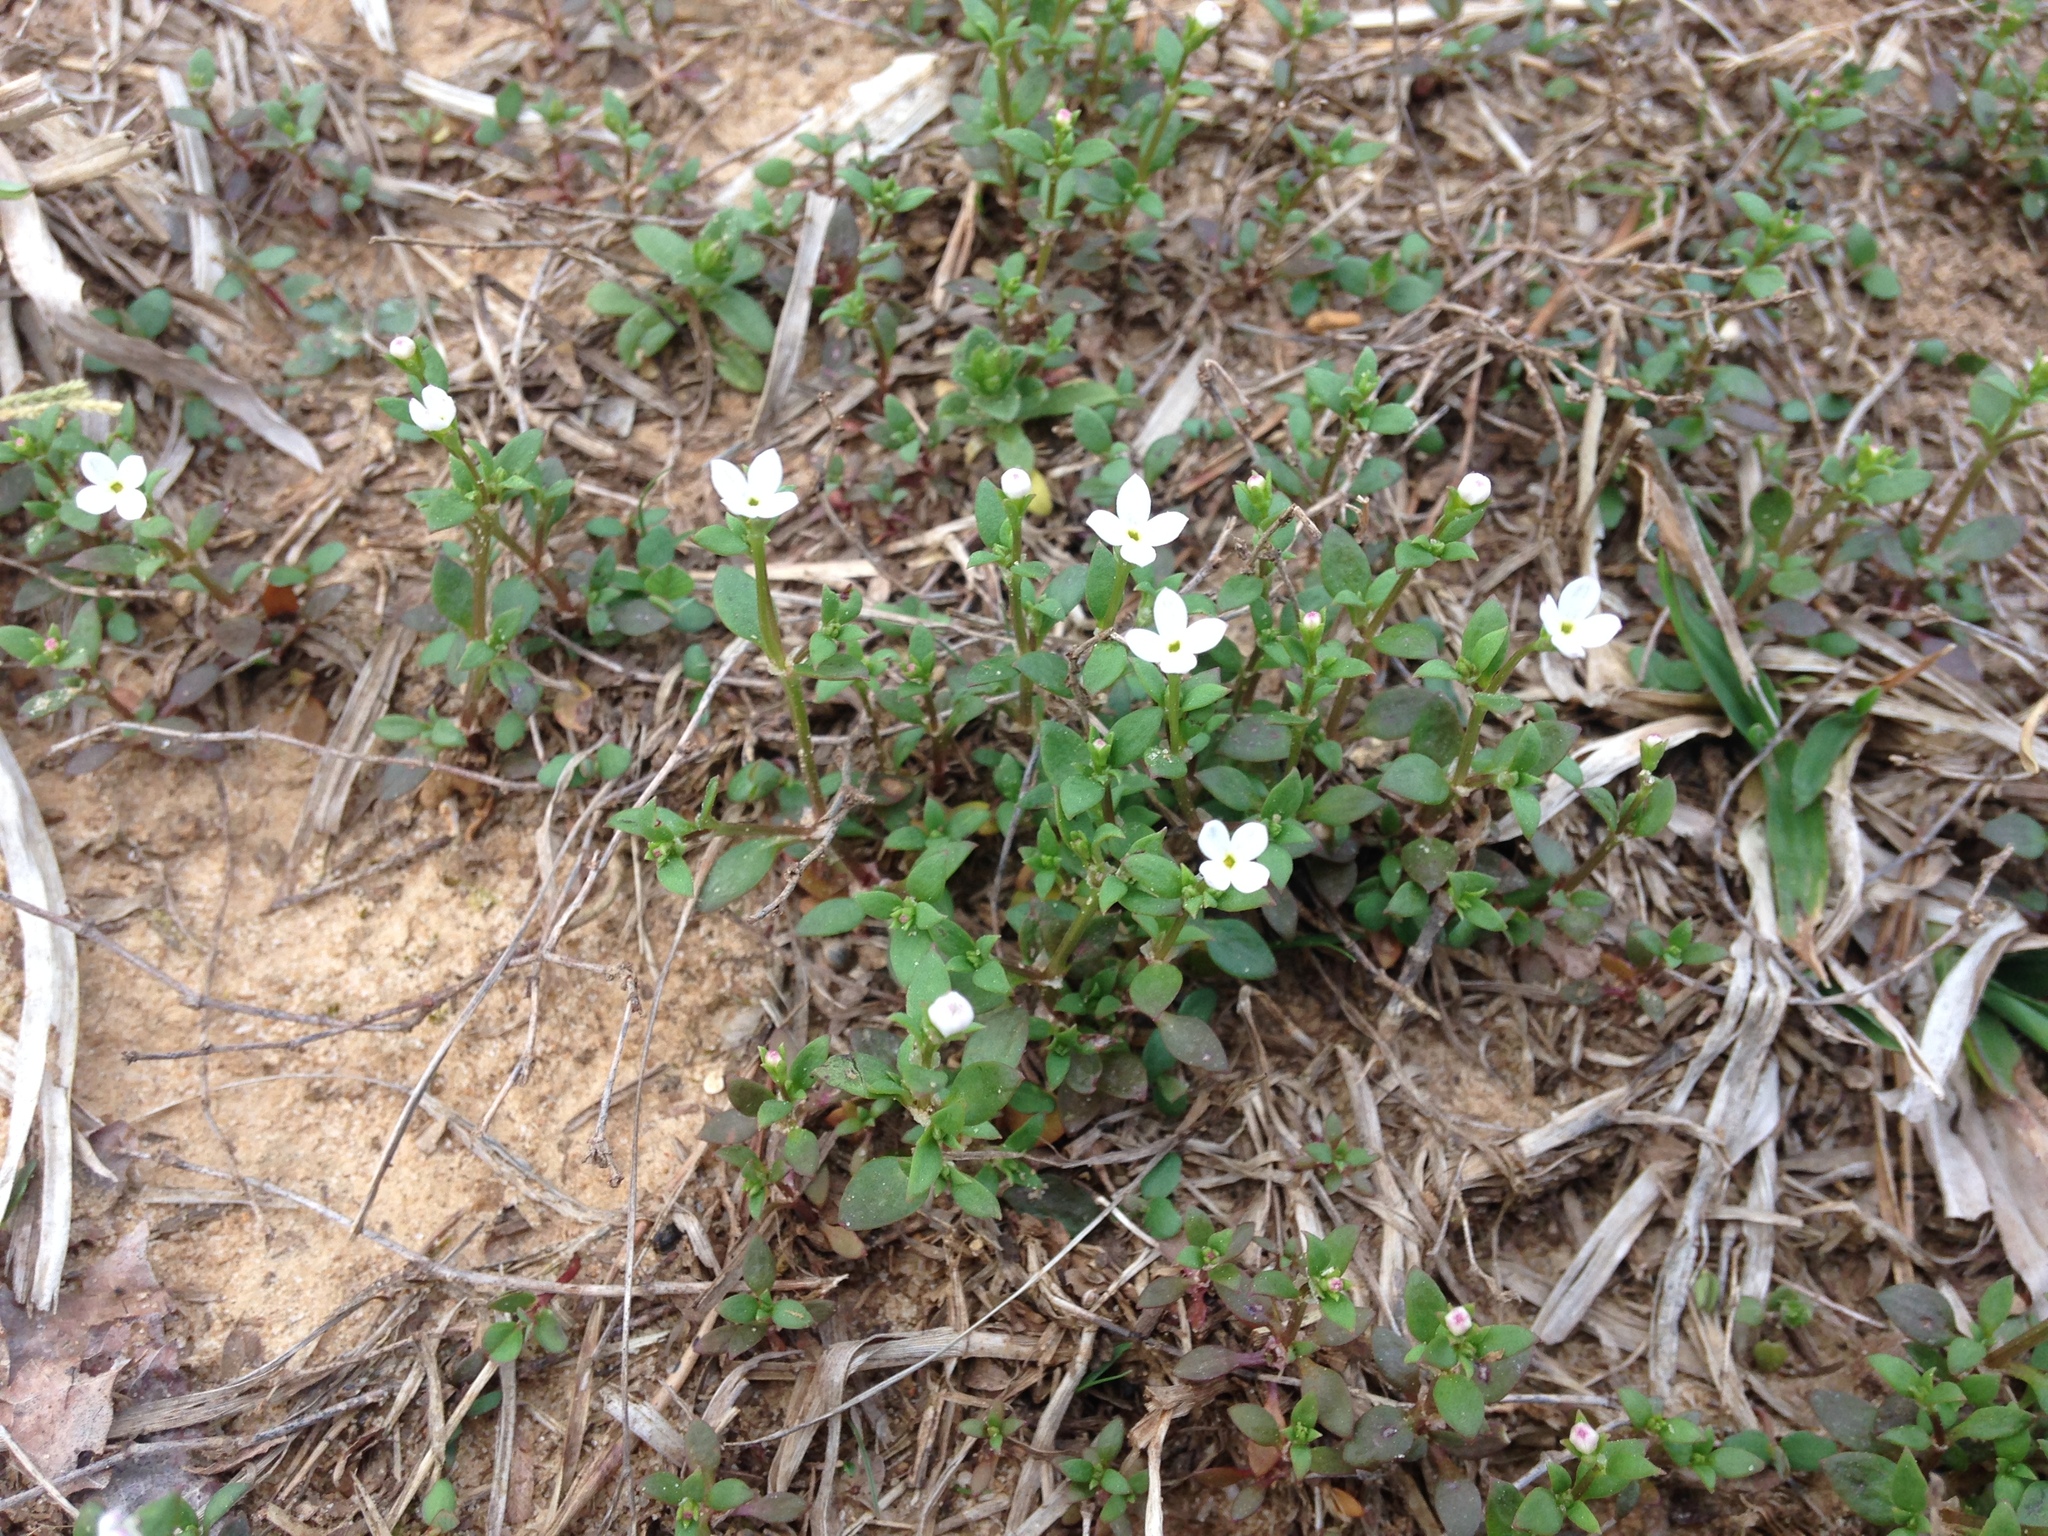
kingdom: Plantae
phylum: Tracheophyta
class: Magnoliopsida
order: Gentianales
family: Rubiaceae
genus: Houstonia
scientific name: Houstonia micrantha
